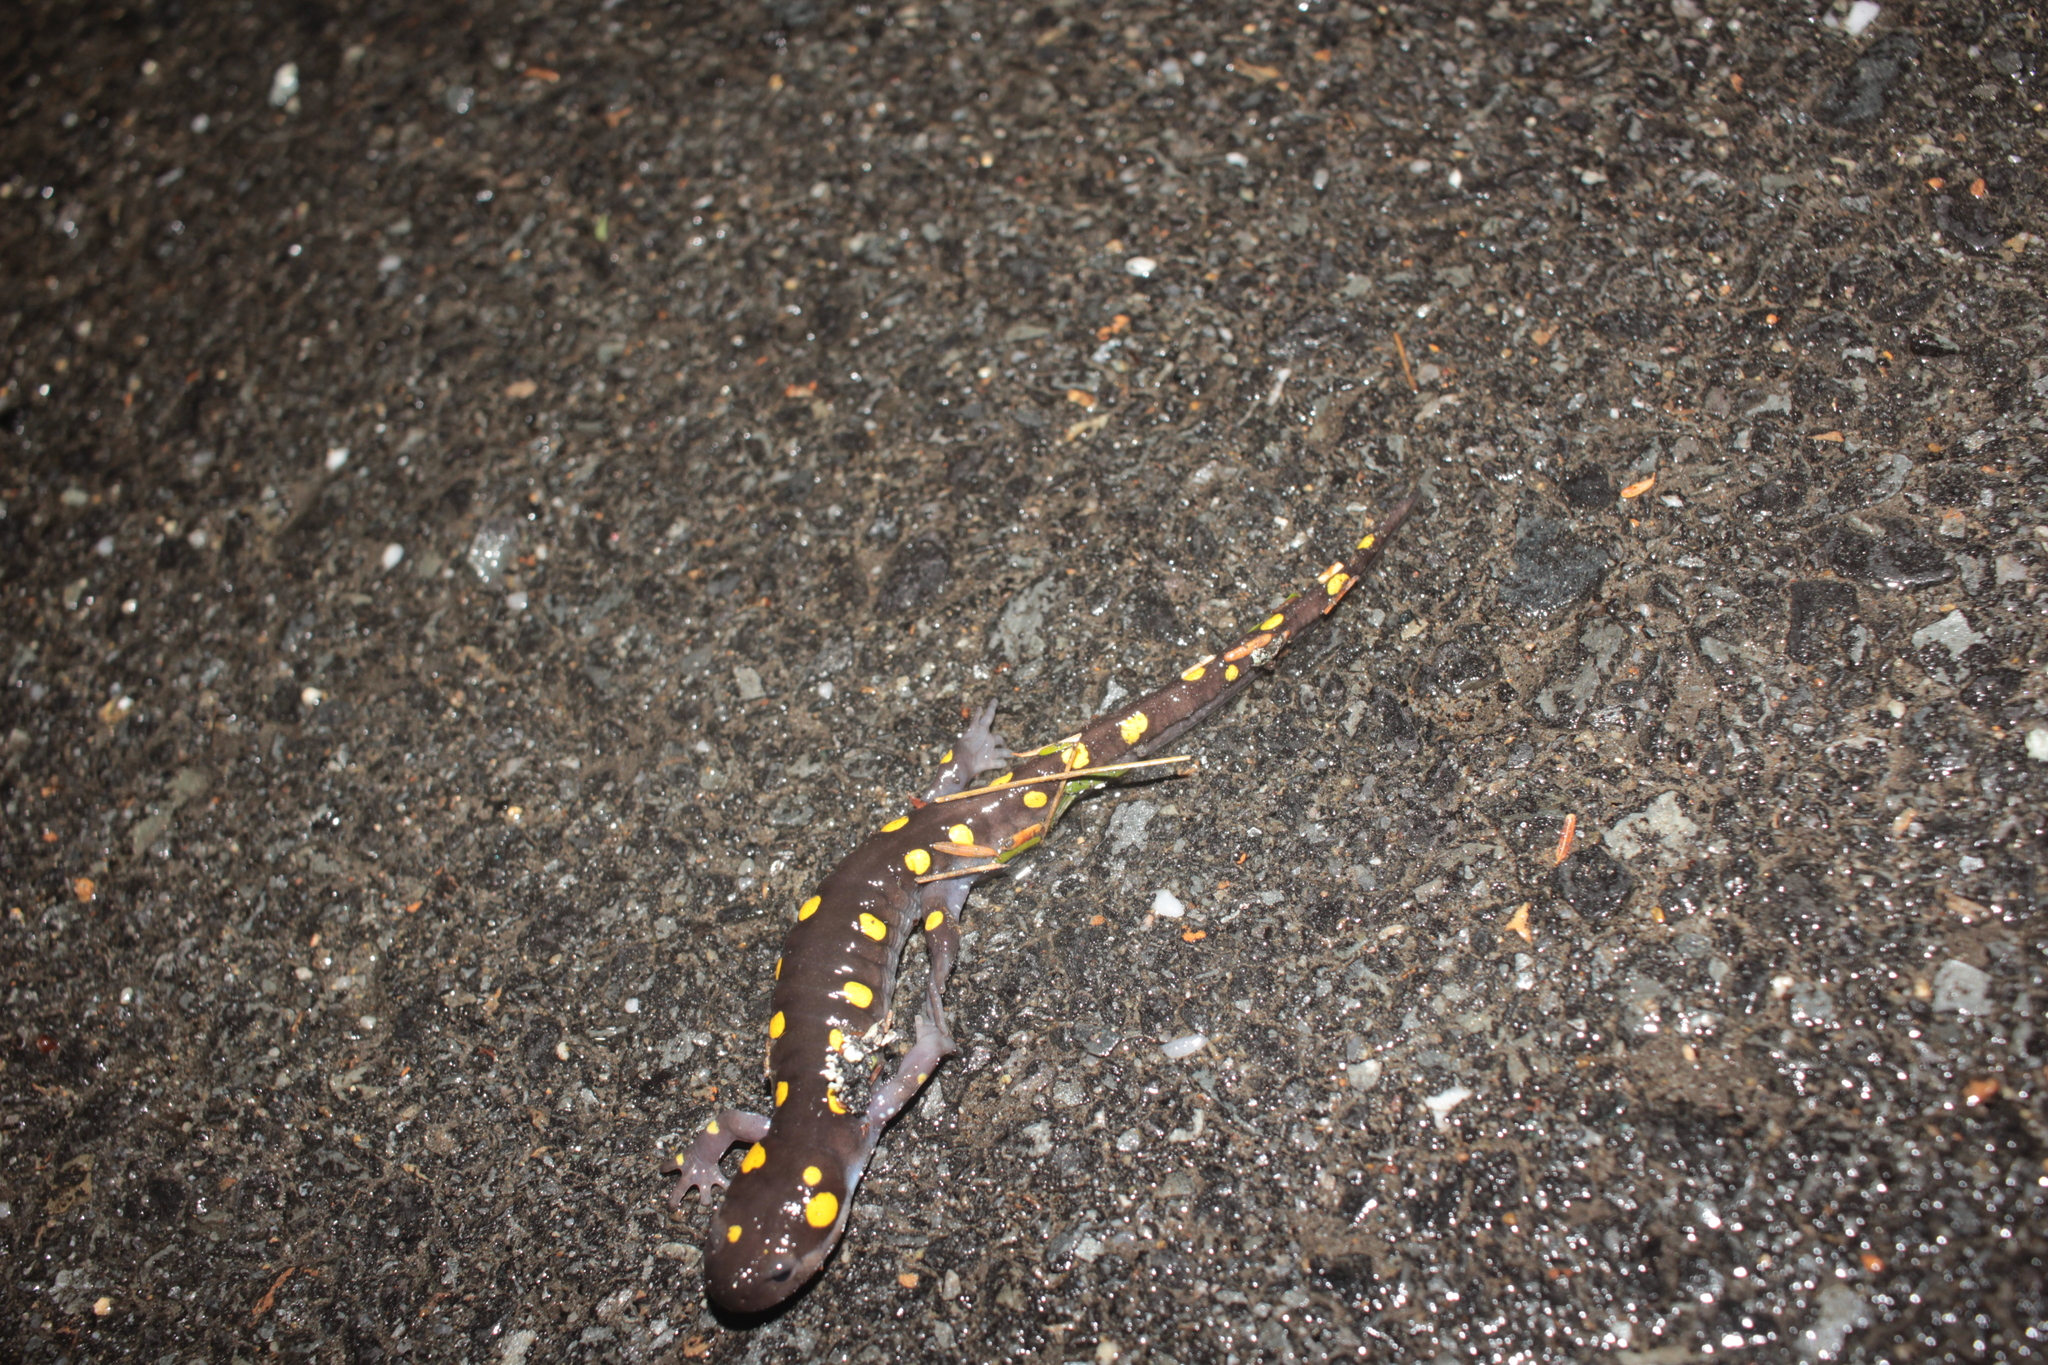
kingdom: Animalia
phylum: Chordata
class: Amphibia
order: Caudata
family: Ambystomatidae
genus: Ambystoma
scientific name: Ambystoma maculatum
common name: Spotted salamander
